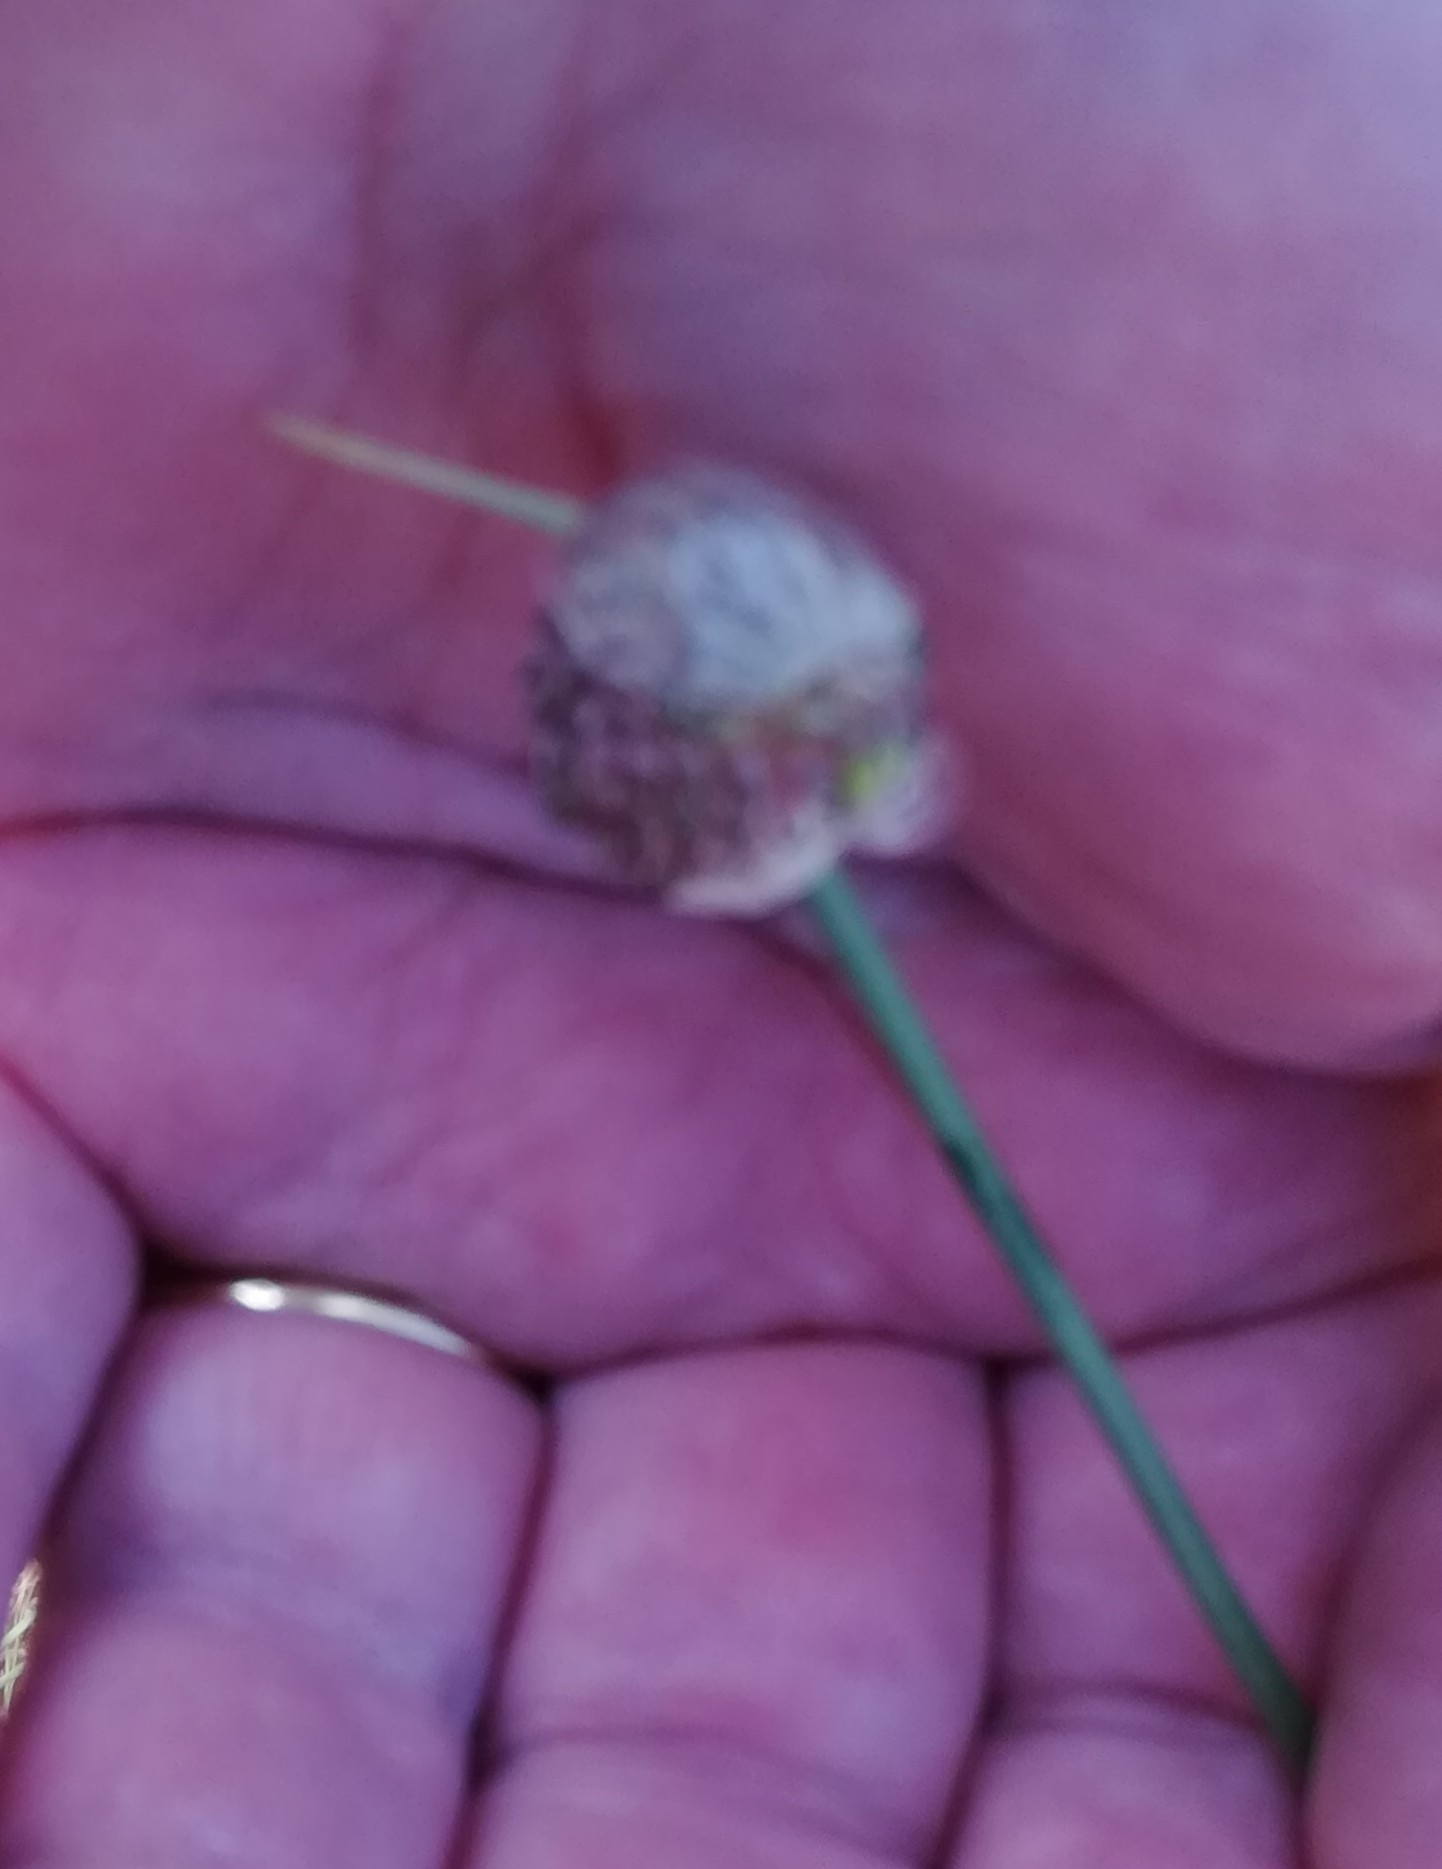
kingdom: Plantae
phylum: Tracheophyta
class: Liliopsida
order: Asparagales
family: Amaryllidaceae
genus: Allium
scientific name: Allium vineale
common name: Crow garlic
